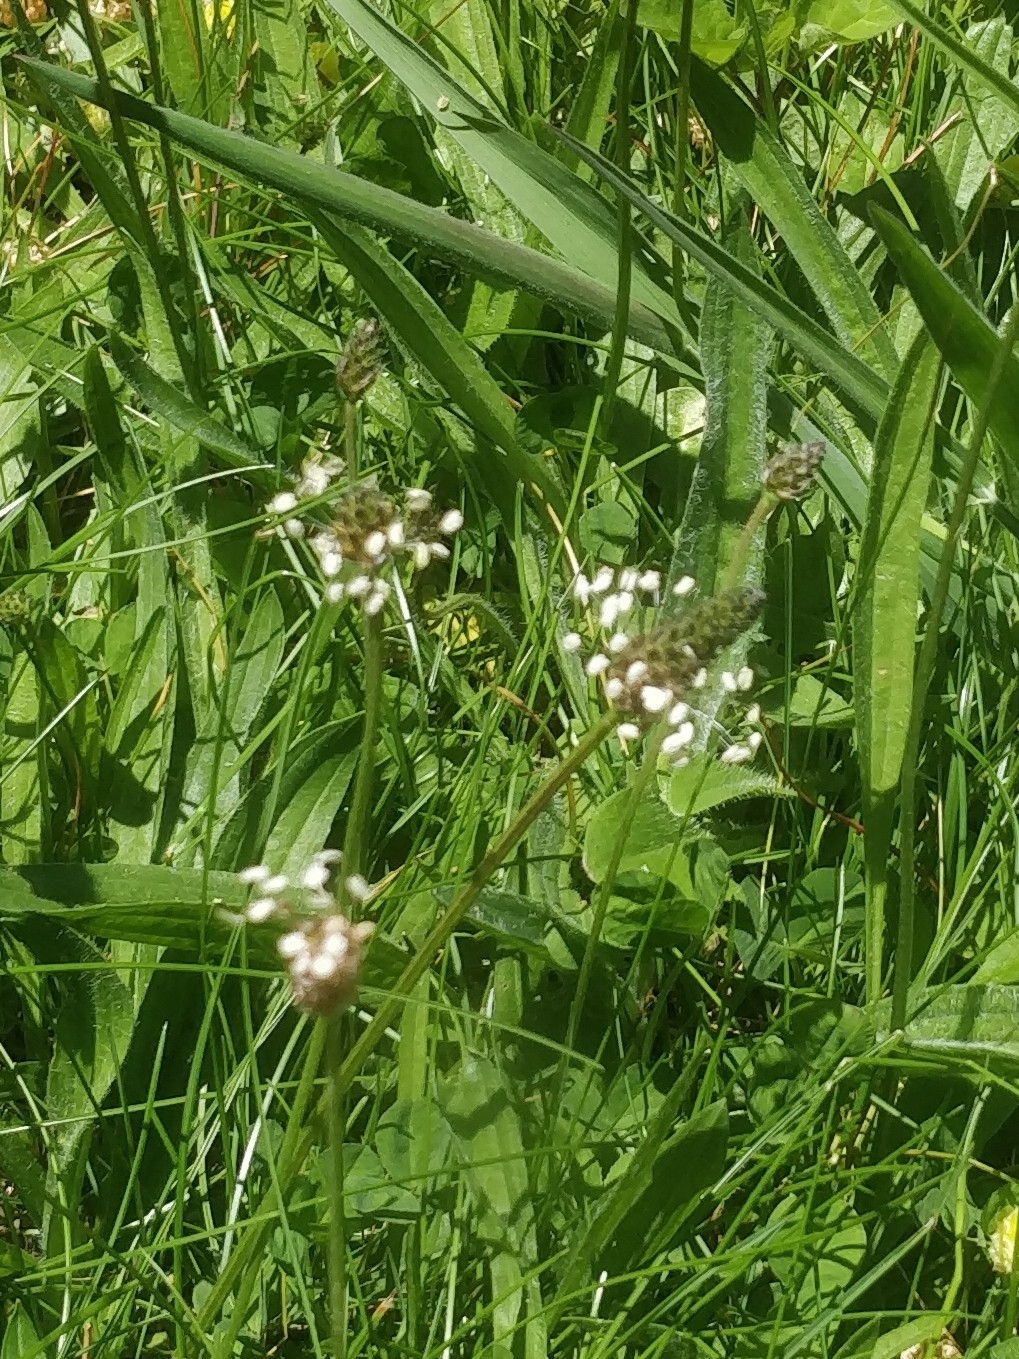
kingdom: Plantae
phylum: Tracheophyta
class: Magnoliopsida
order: Lamiales
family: Plantaginaceae
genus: Plantago
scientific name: Plantago lanceolata
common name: Ribwort plantain
